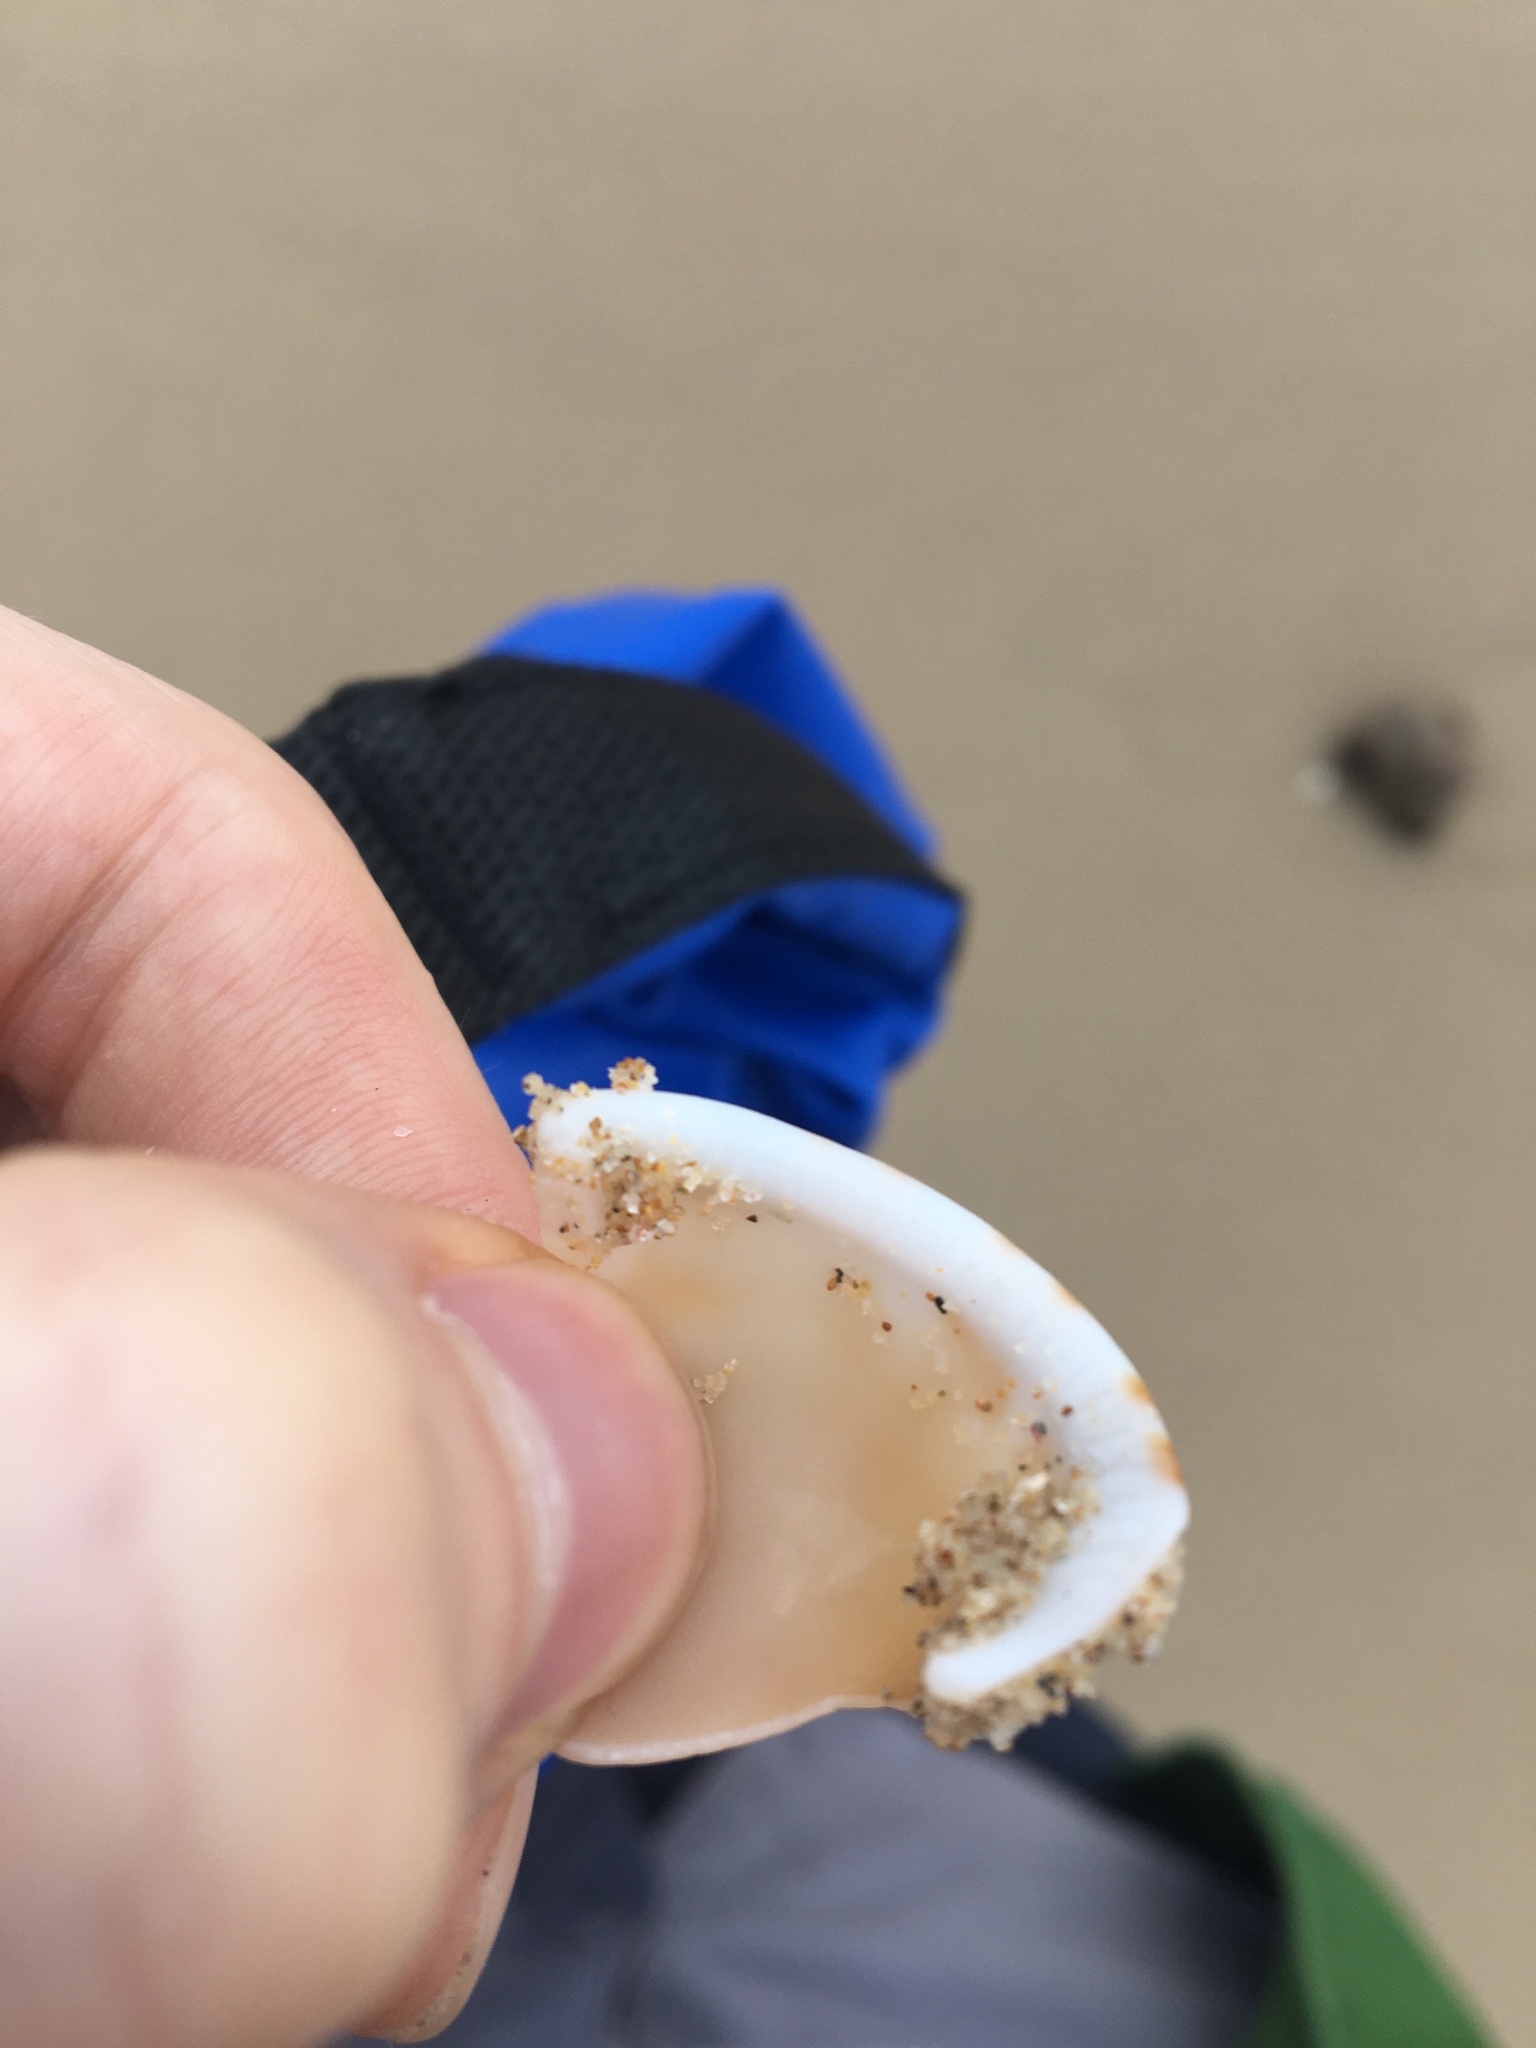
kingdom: Animalia
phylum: Mollusca
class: Gastropoda
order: Littorinimorpha
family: Cassidae
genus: Semicassis
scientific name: Semicassis labiata
